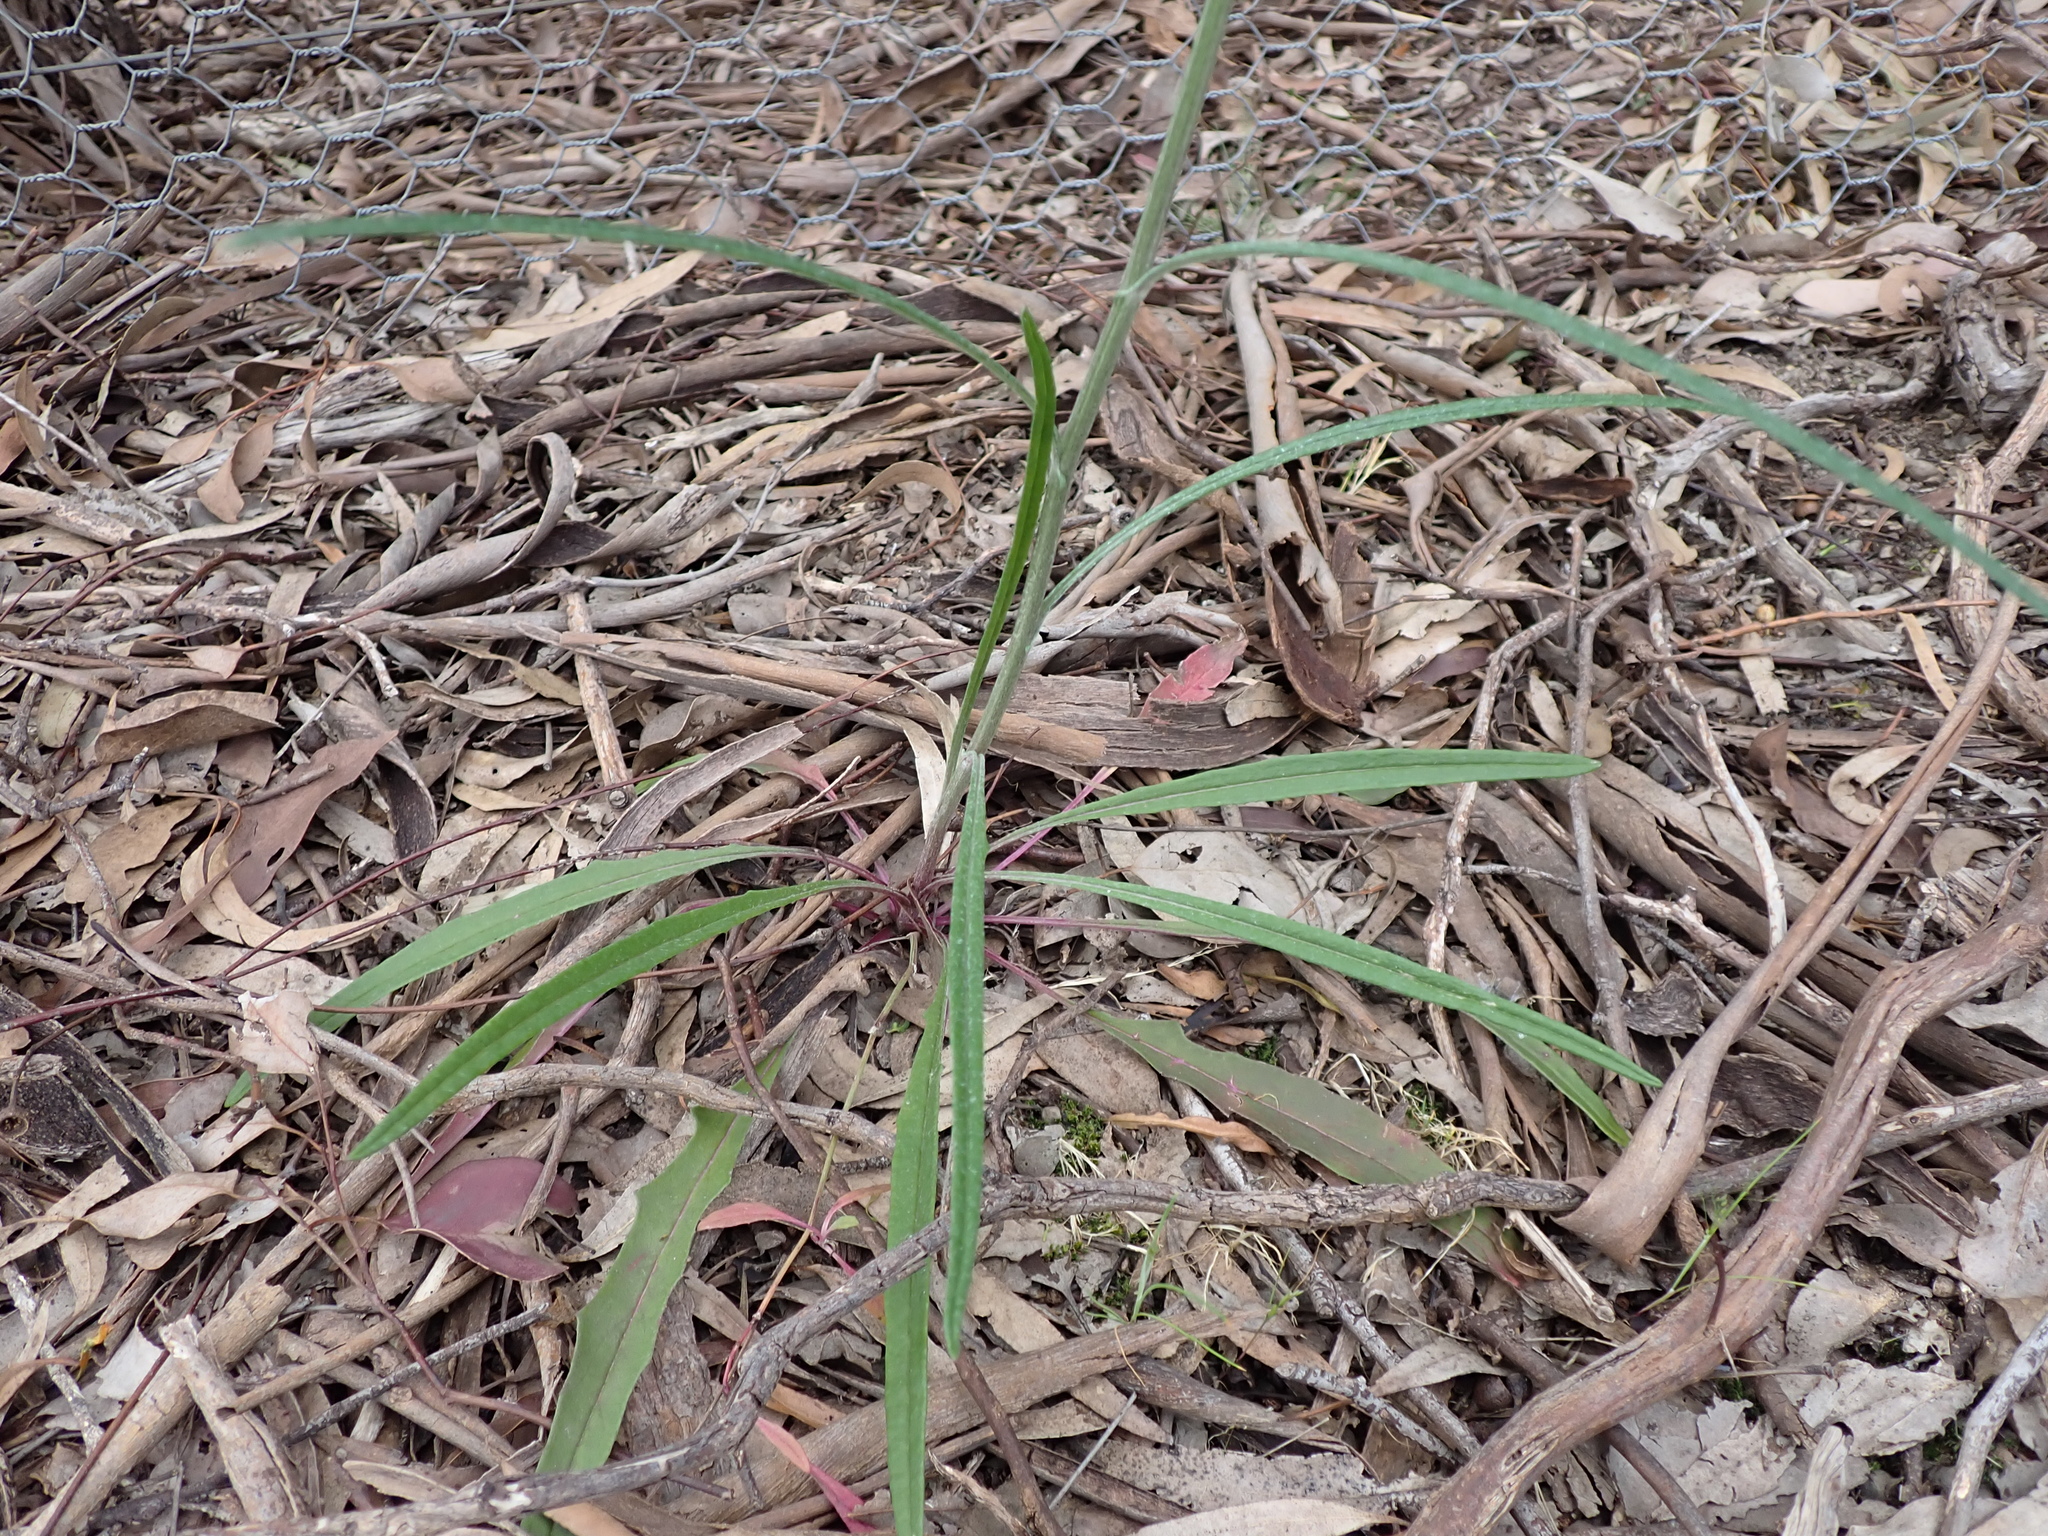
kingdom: Plantae
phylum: Tracheophyta
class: Magnoliopsida
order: Asterales
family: Asteraceae
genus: Senecio
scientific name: Senecio phelleus
